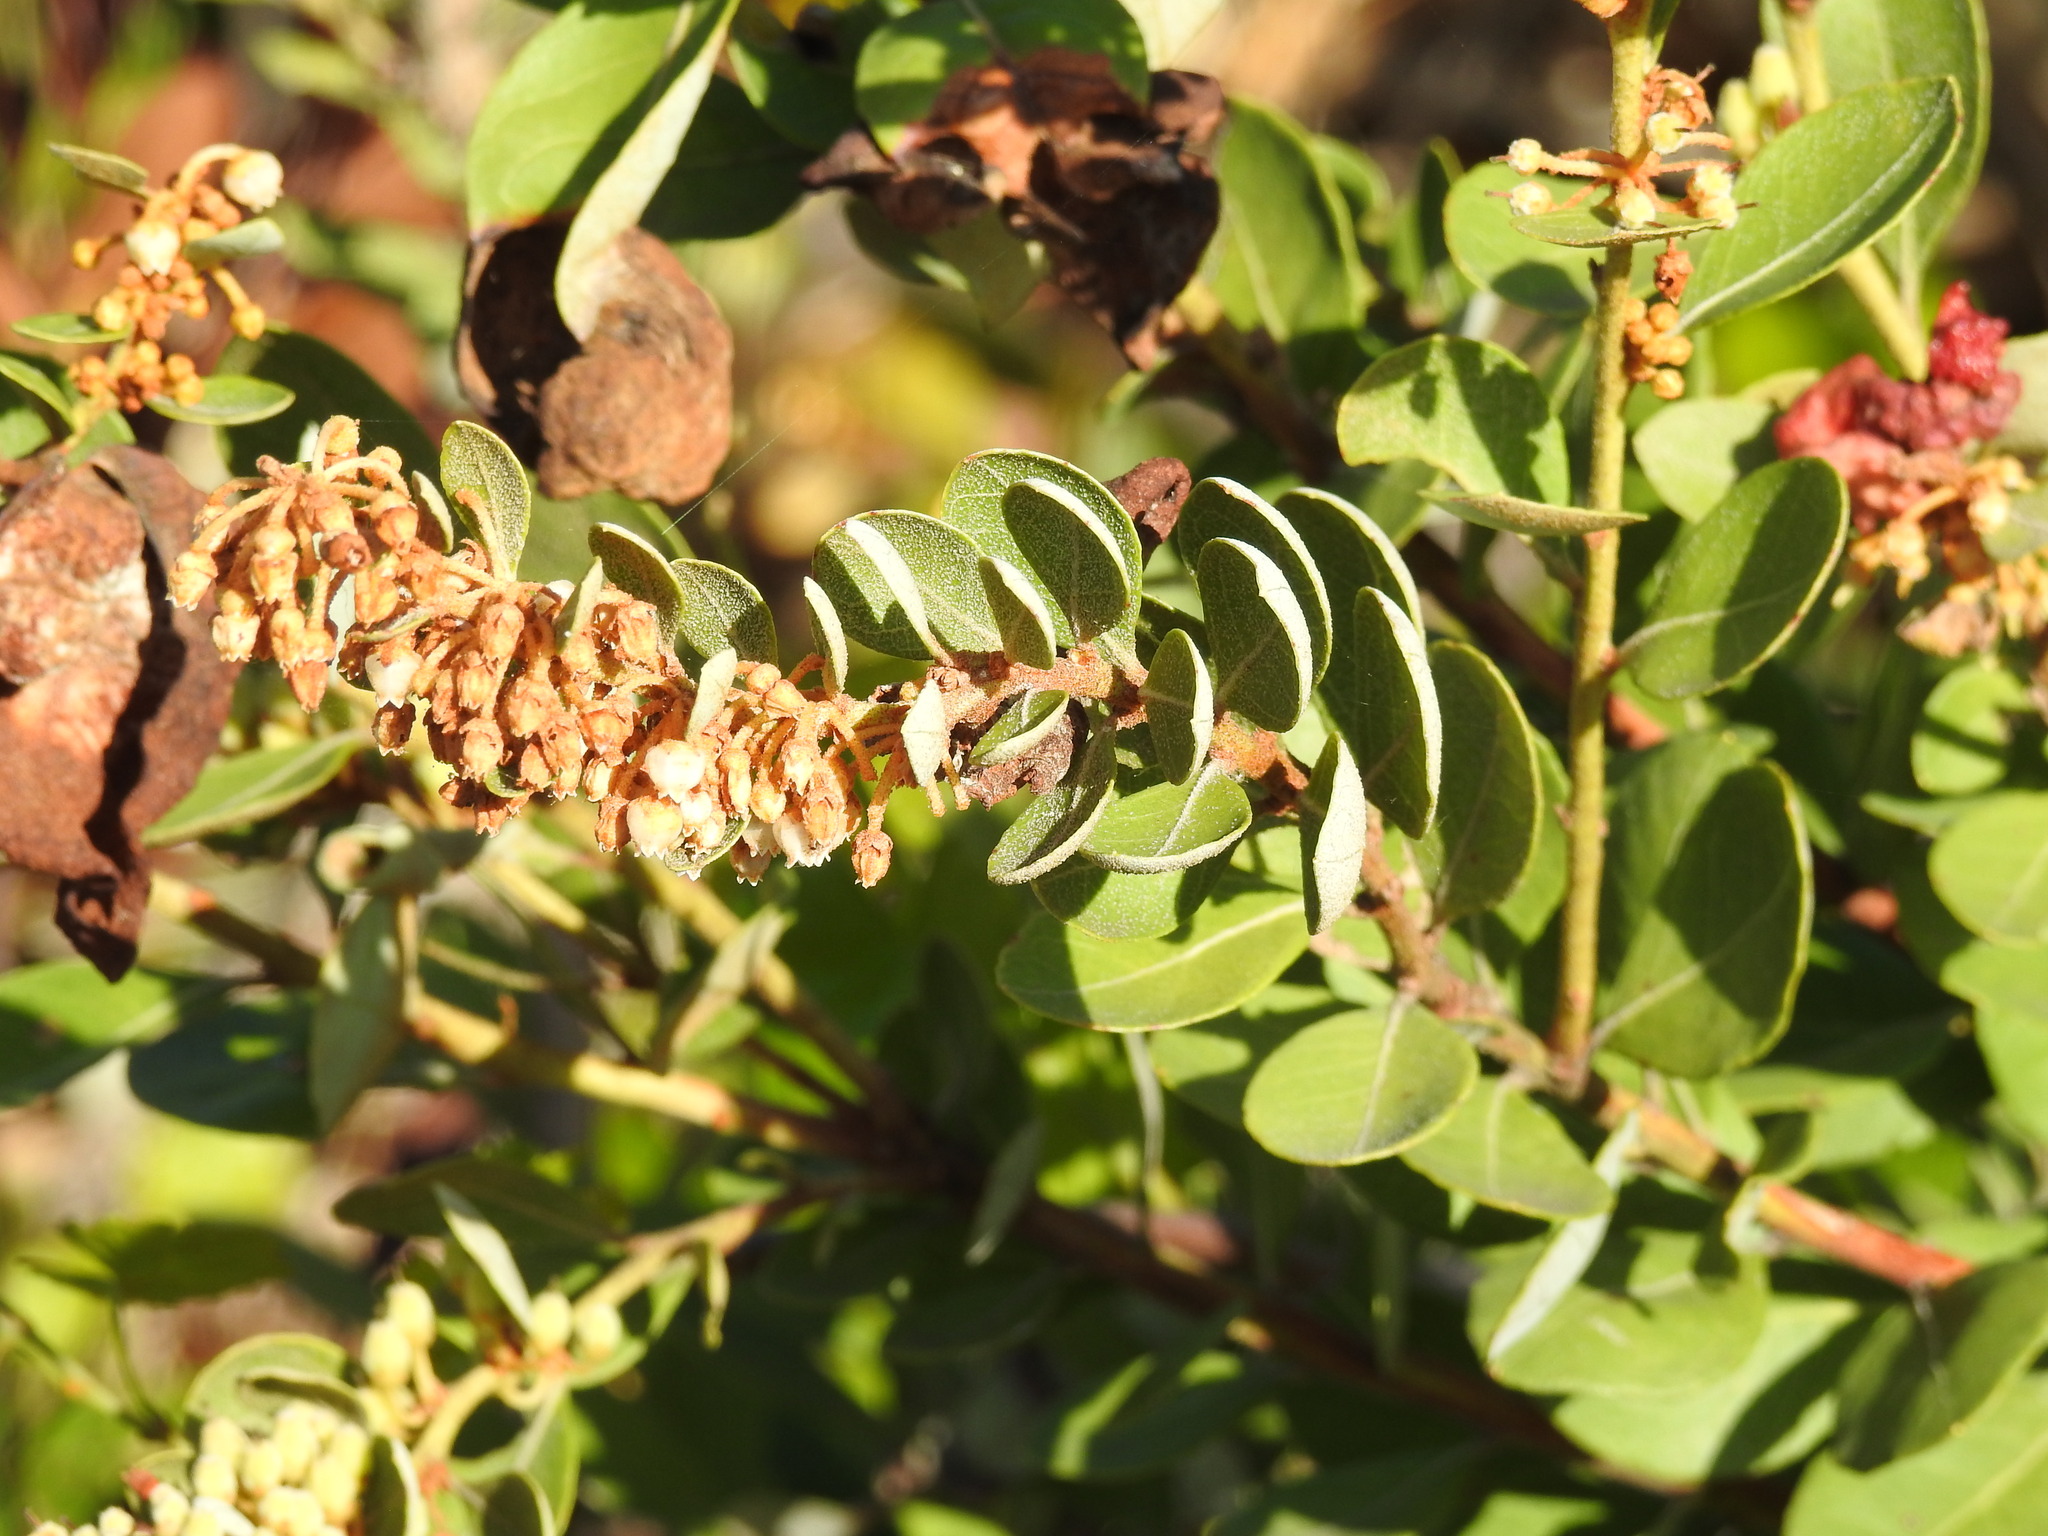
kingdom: Plantae
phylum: Tracheophyta
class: Magnoliopsida
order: Ericales
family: Ericaceae
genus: Lyonia
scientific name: Lyonia fruticosa
